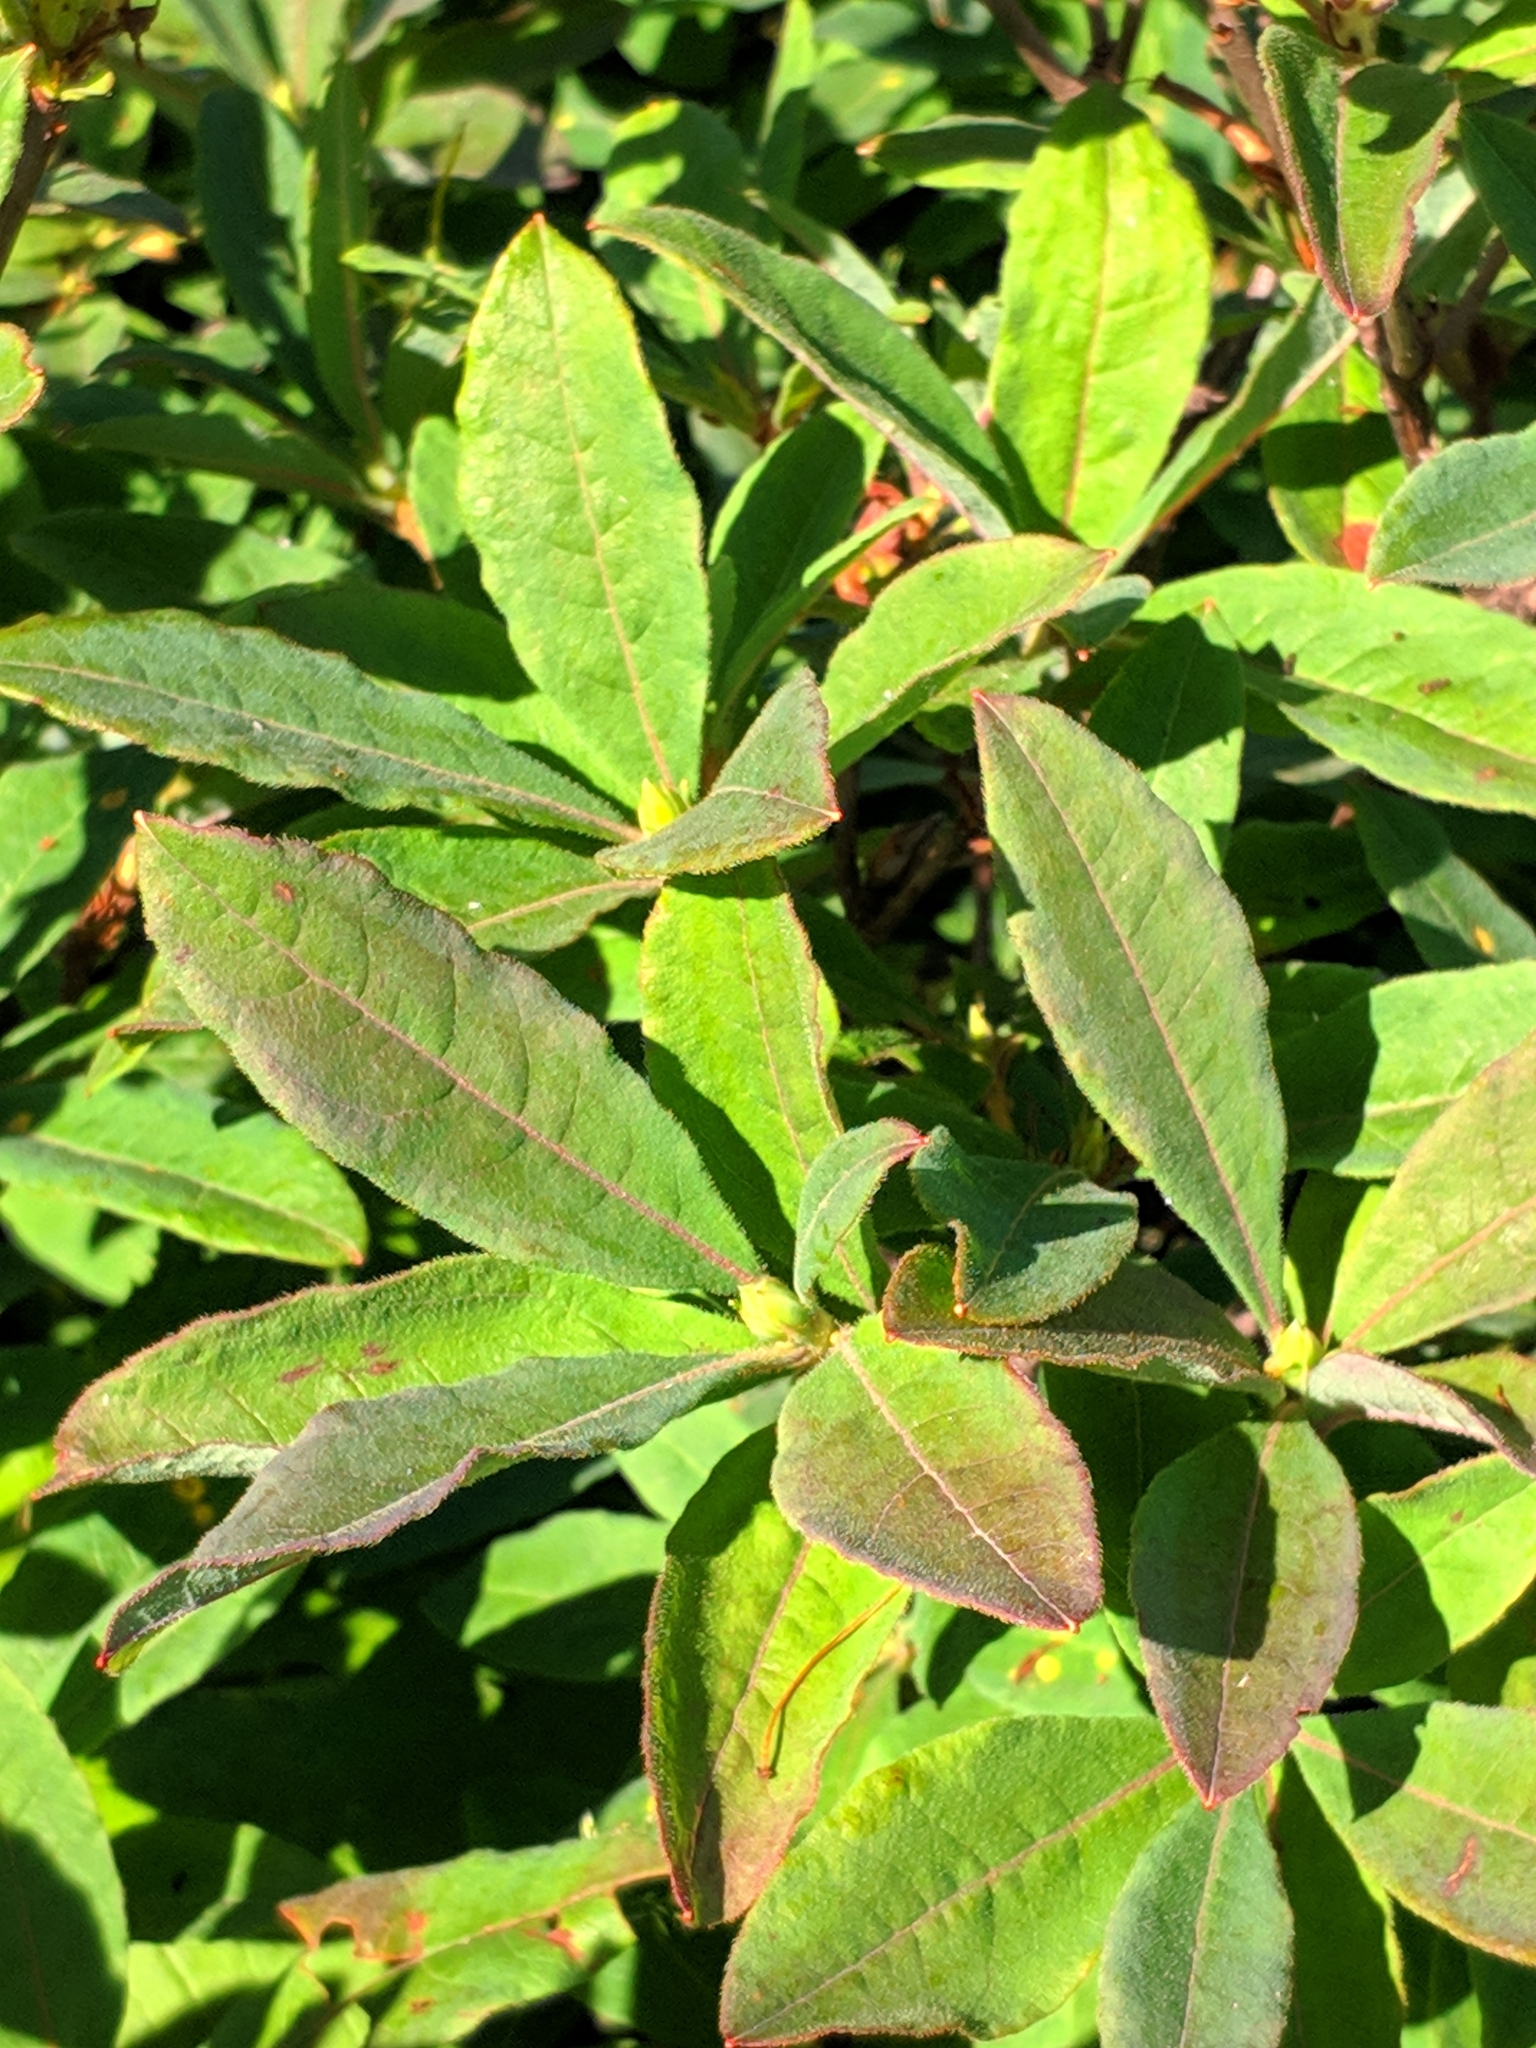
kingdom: Plantae
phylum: Tracheophyta
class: Magnoliopsida
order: Ericales
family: Ericaceae
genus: Rhododendron
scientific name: Rhododendron luteum
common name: Yellow azalea
